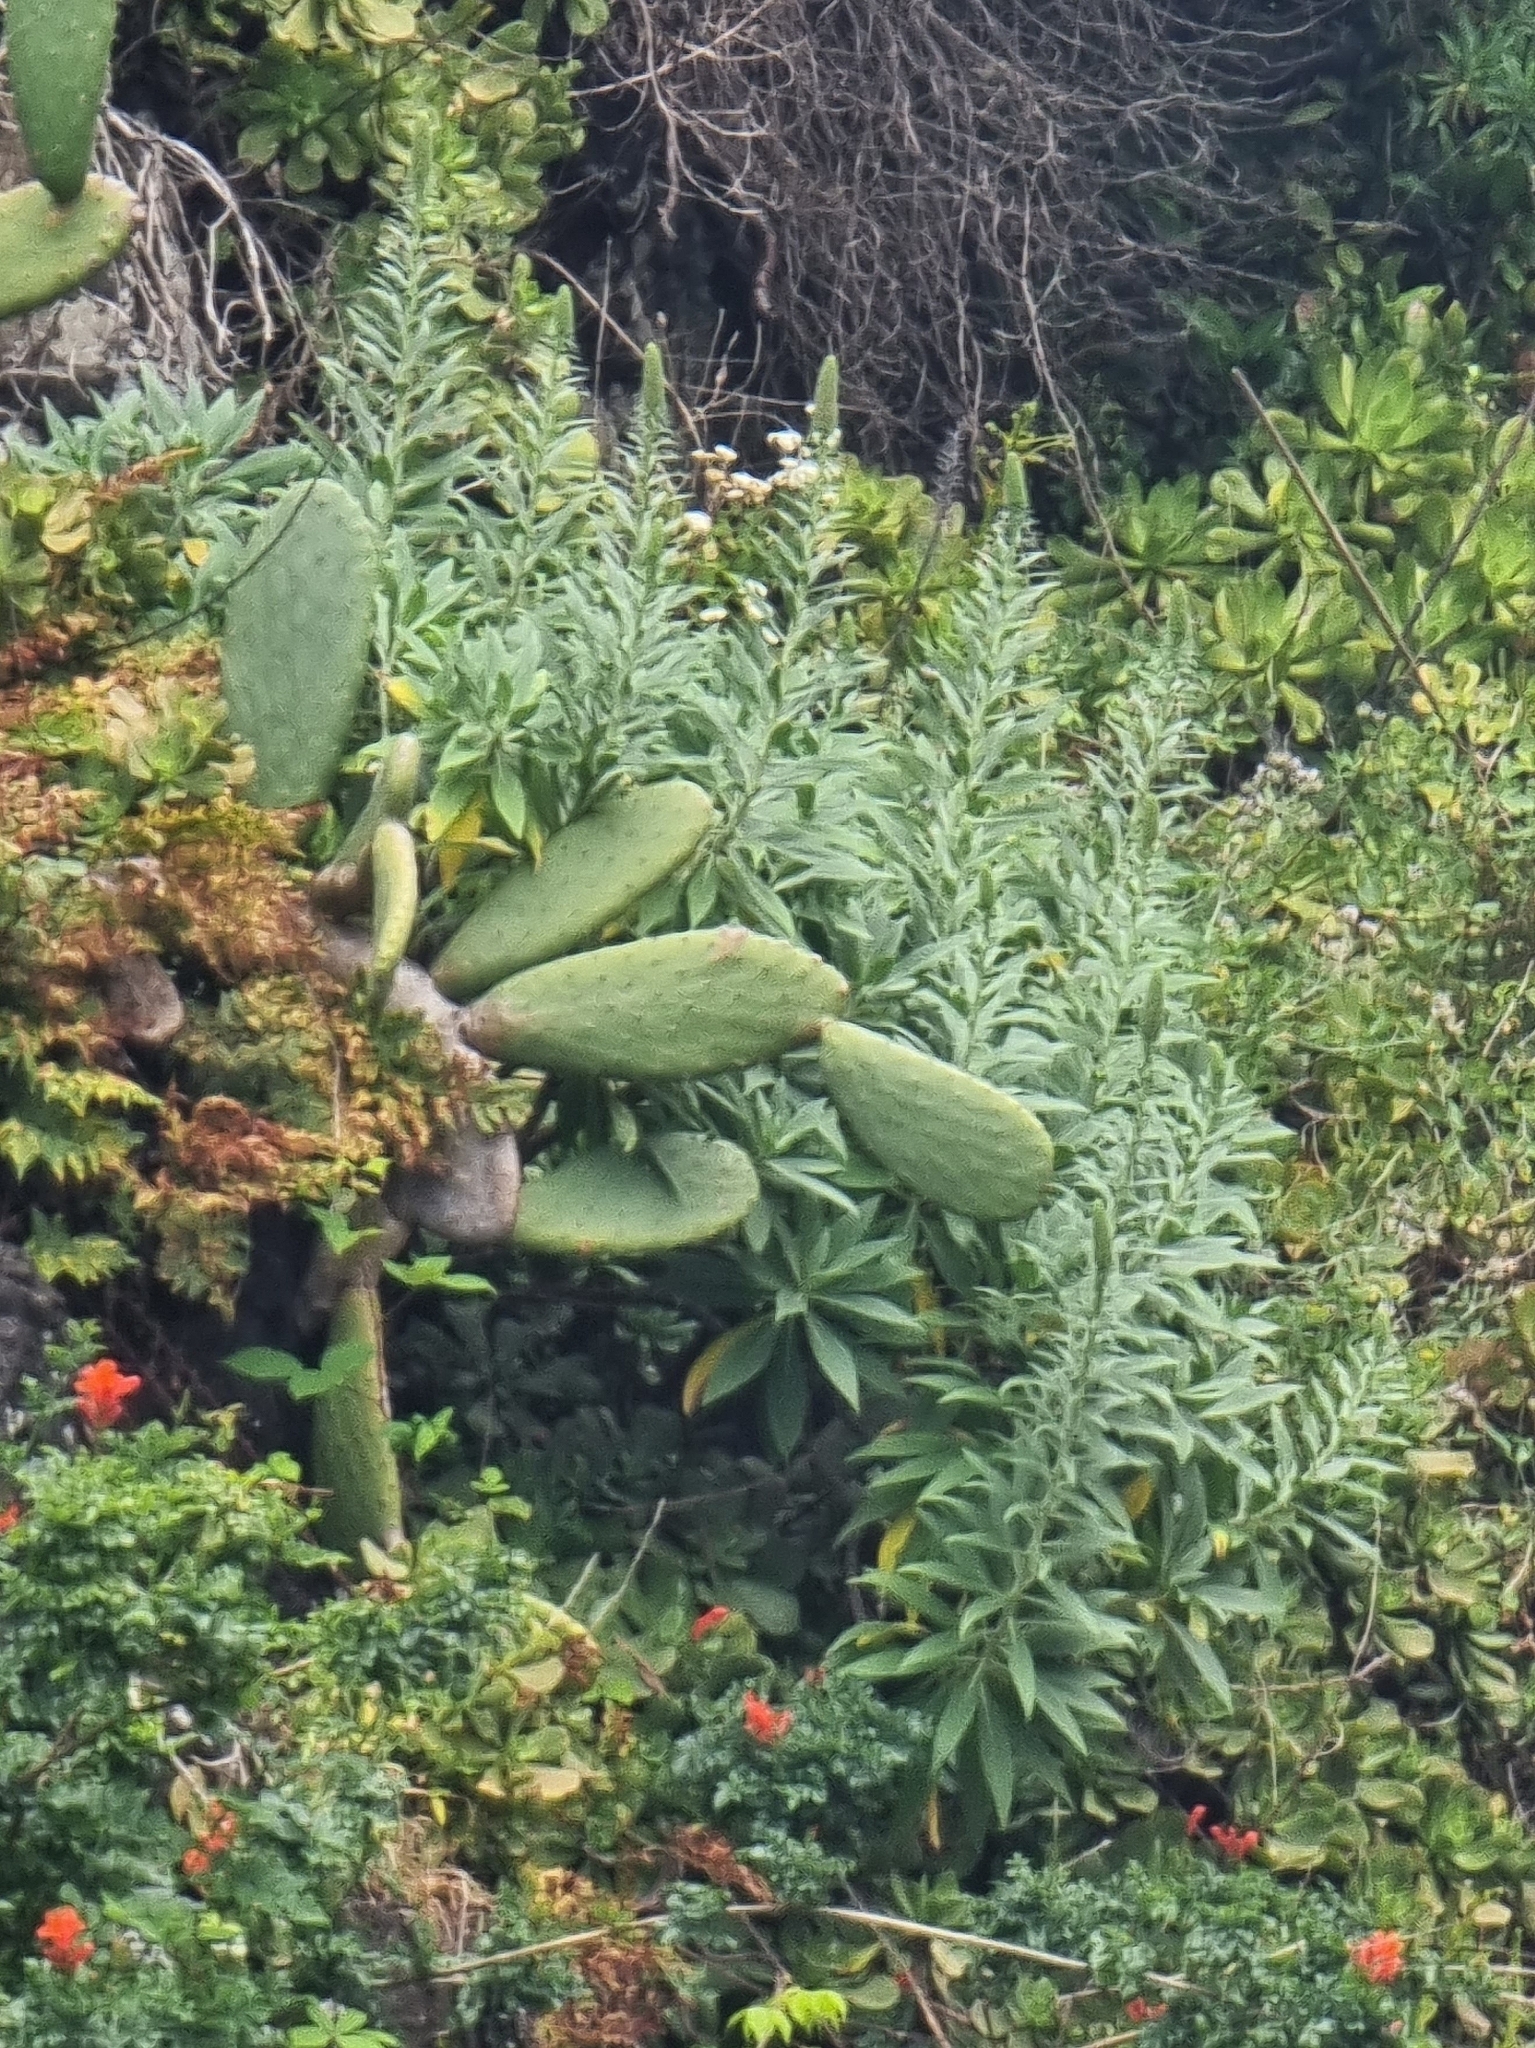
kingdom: Plantae
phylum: Tracheophyta
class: Magnoliopsida
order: Boraginales
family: Boraginaceae
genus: Echium
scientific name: Echium nervosum
